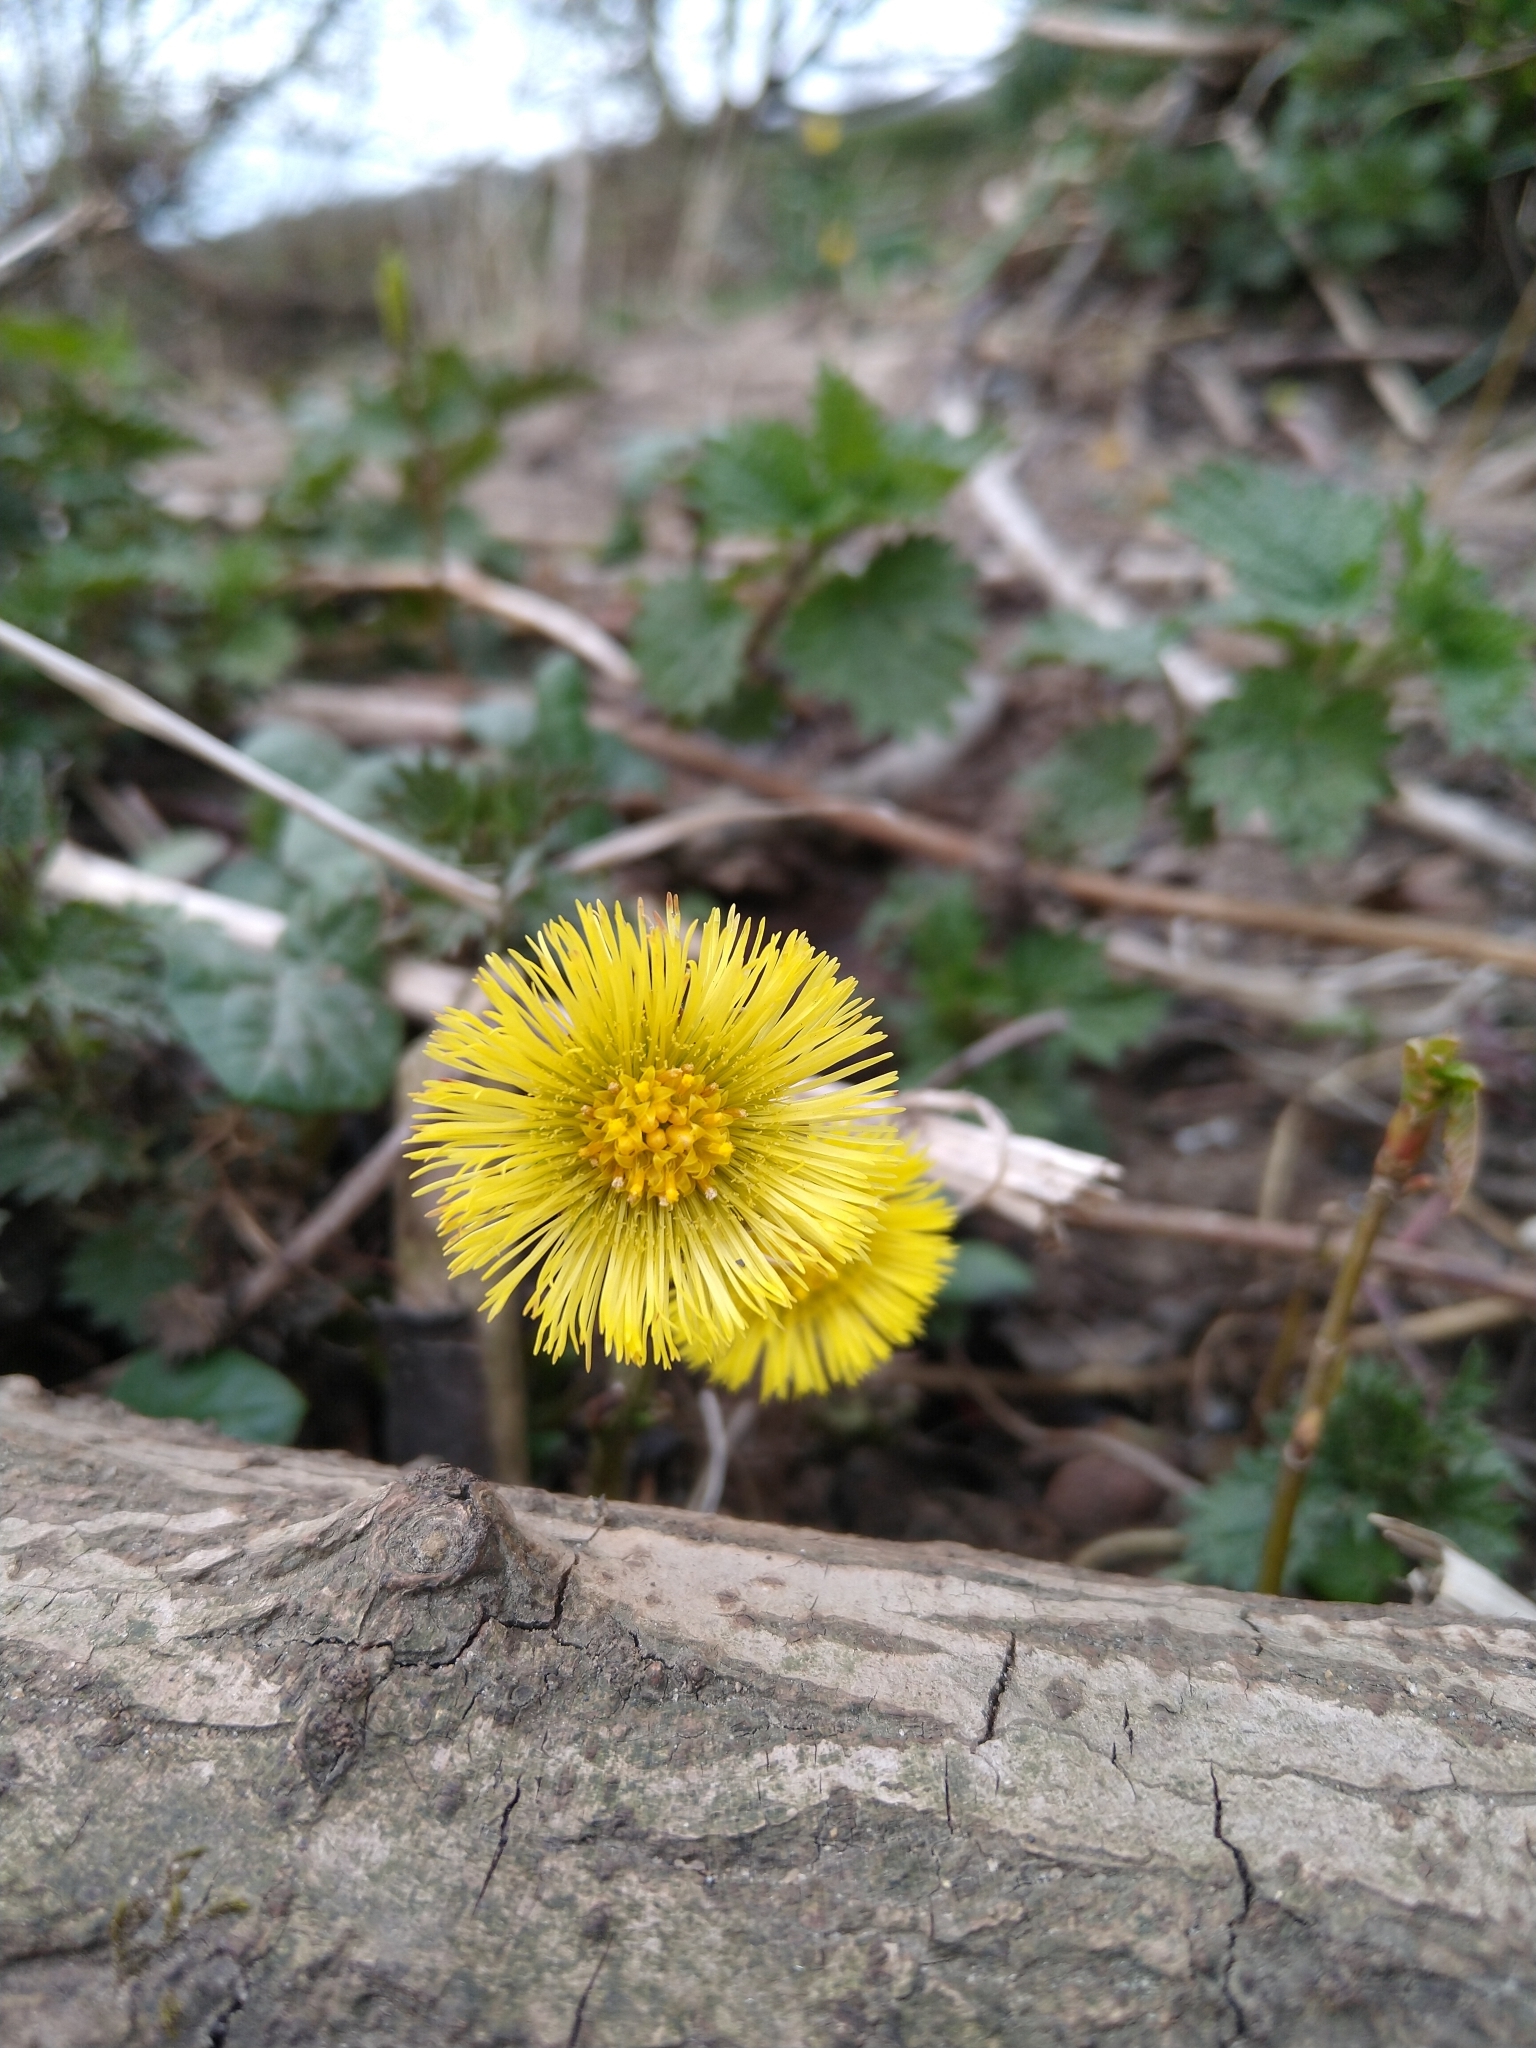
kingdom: Plantae
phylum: Tracheophyta
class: Magnoliopsida
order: Asterales
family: Asteraceae
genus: Tussilago
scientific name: Tussilago farfara
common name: Coltsfoot
